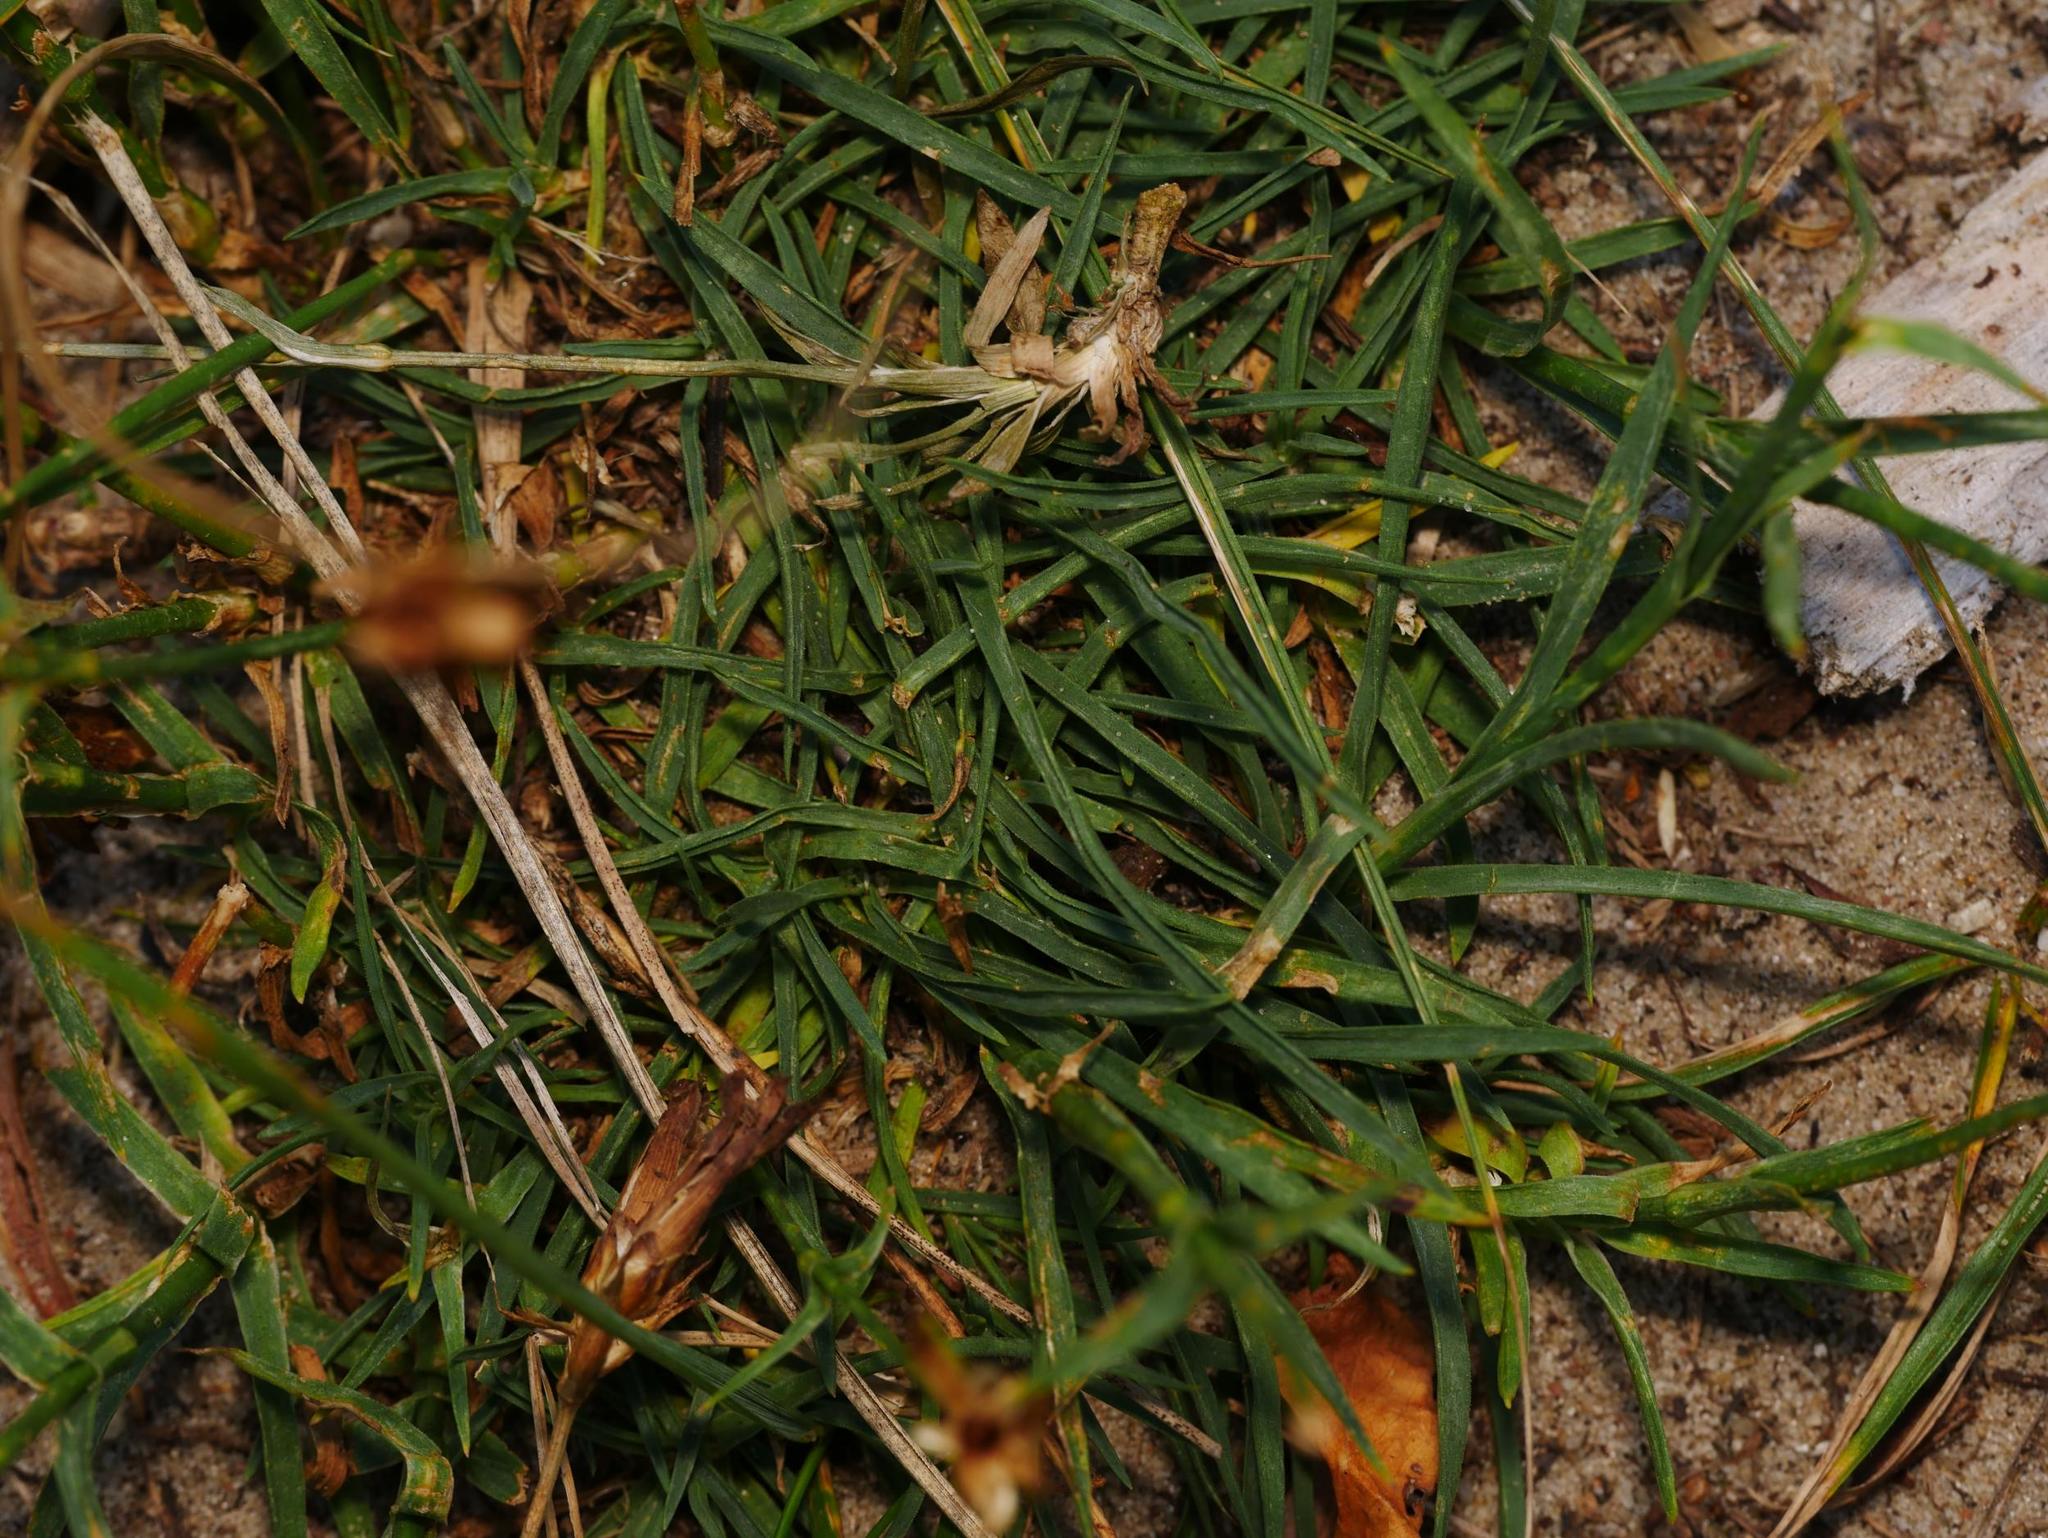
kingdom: Plantae
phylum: Tracheophyta
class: Magnoliopsida
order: Caryophyllales
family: Caryophyllaceae
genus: Dianthus
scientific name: Dianthus carthusianorum
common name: Carthusian pink
